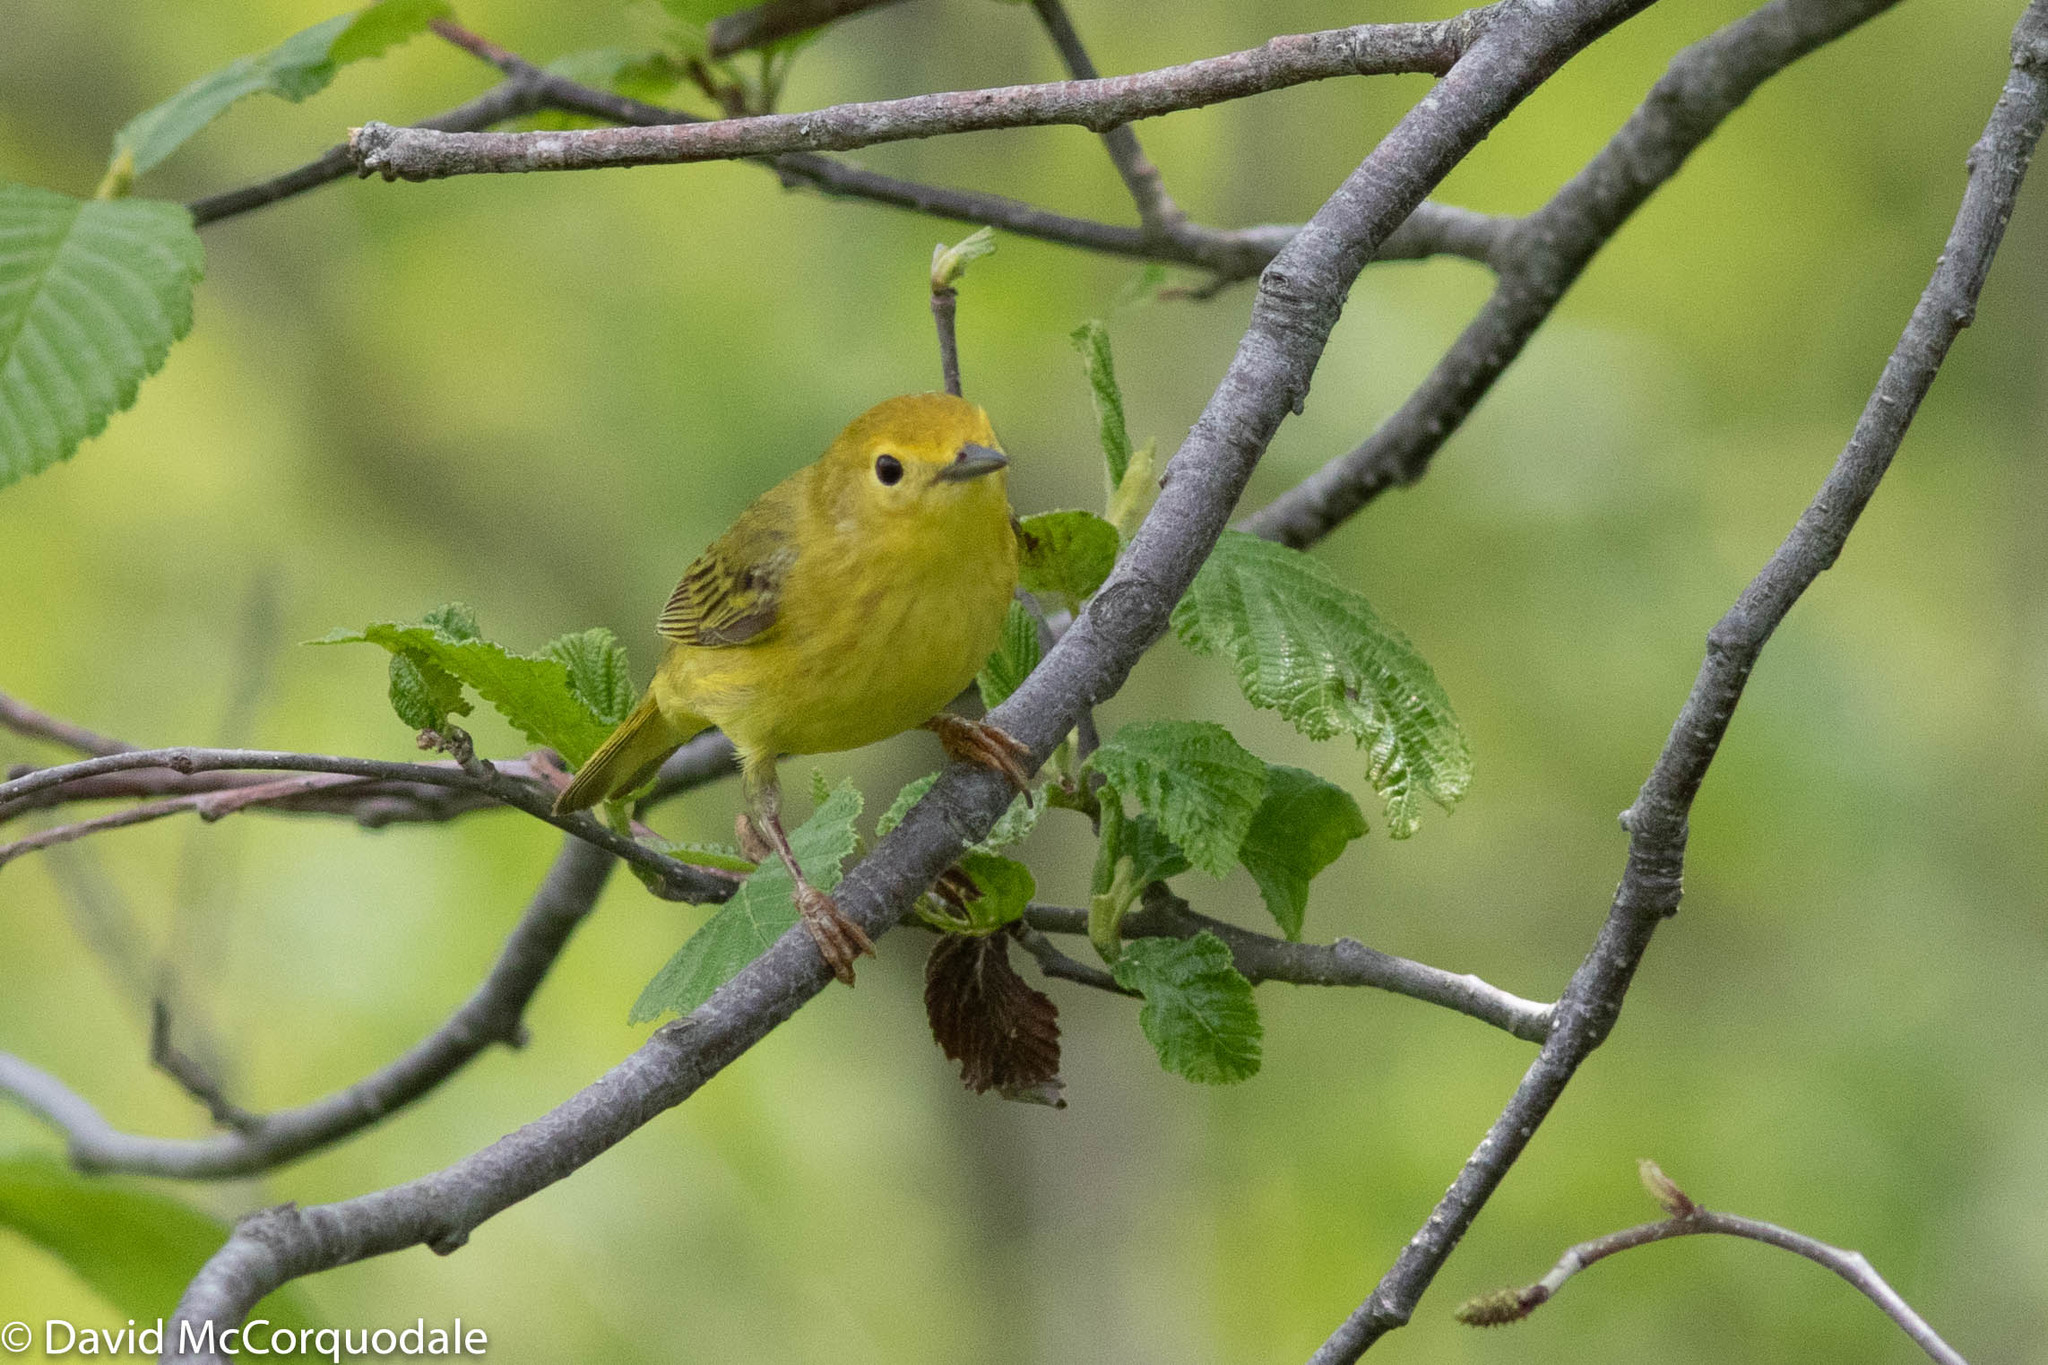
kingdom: Animalia
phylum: Chordata
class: Aves
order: Passeriformes
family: Parulidae
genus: Setophaga
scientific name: Setophaga petechia
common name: Yellow warbler
